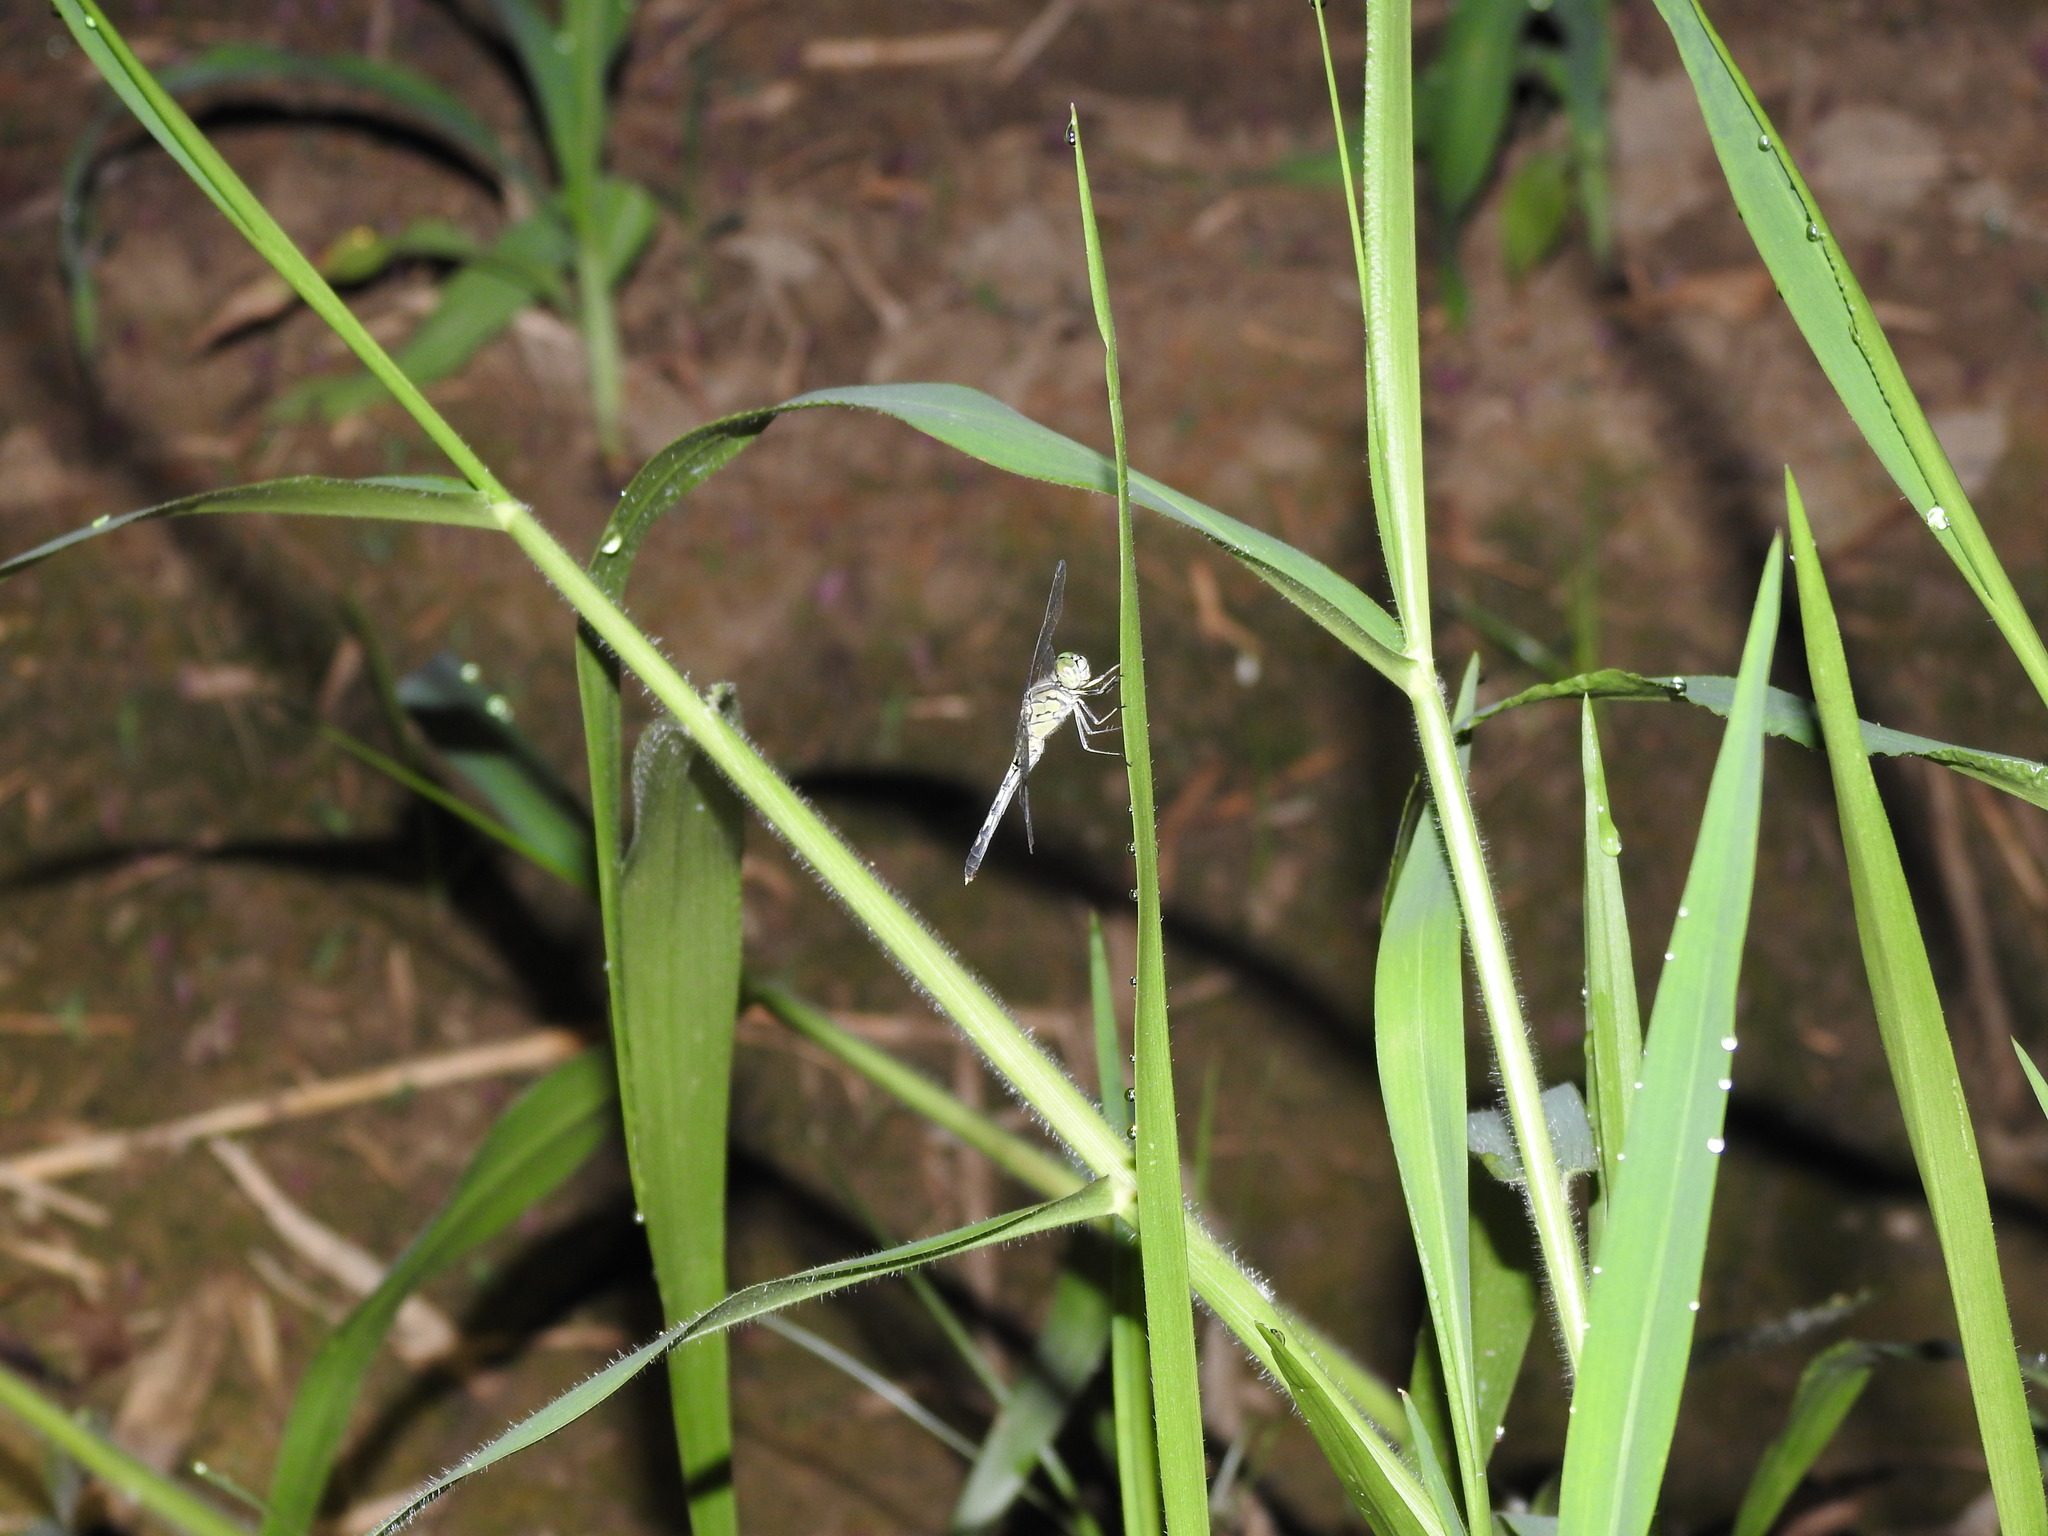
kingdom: Animalia
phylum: Arthropoda
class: Insecta
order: Odonata
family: Libellulidae
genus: Diplacodes
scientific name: Diplacodes trivialis
